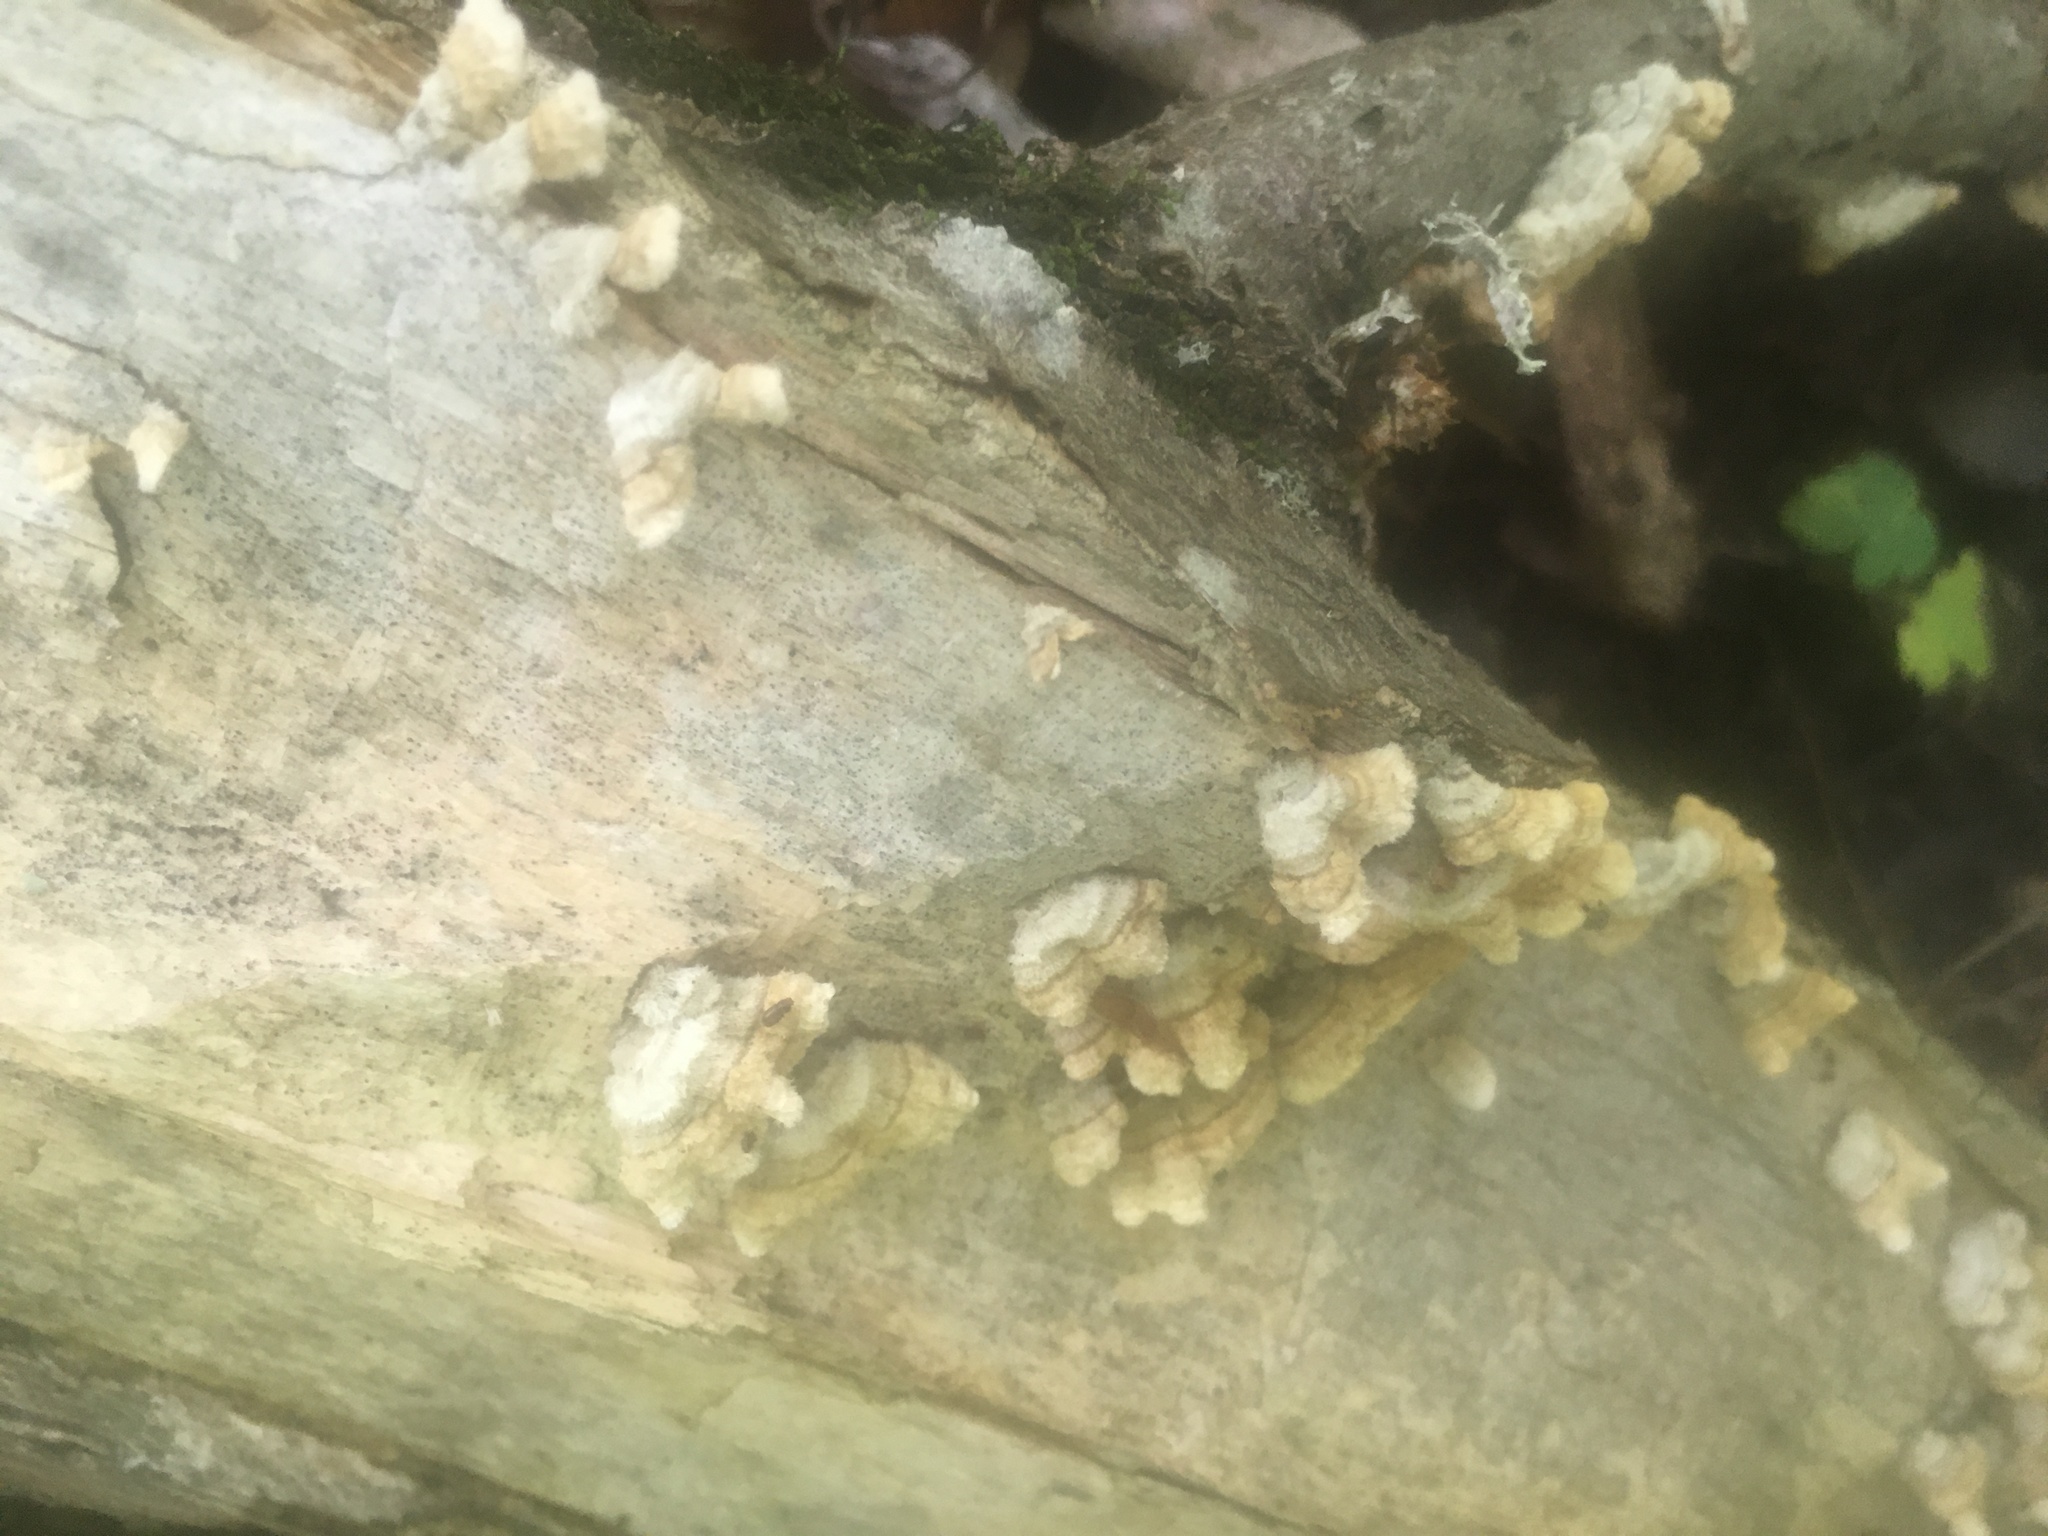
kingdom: Fungi
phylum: Basidiomycota
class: Agaricomycetes
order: Russulales
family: Stereaceae
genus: Stereum
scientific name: Stereum hirsutum
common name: Hairy curtain crust
